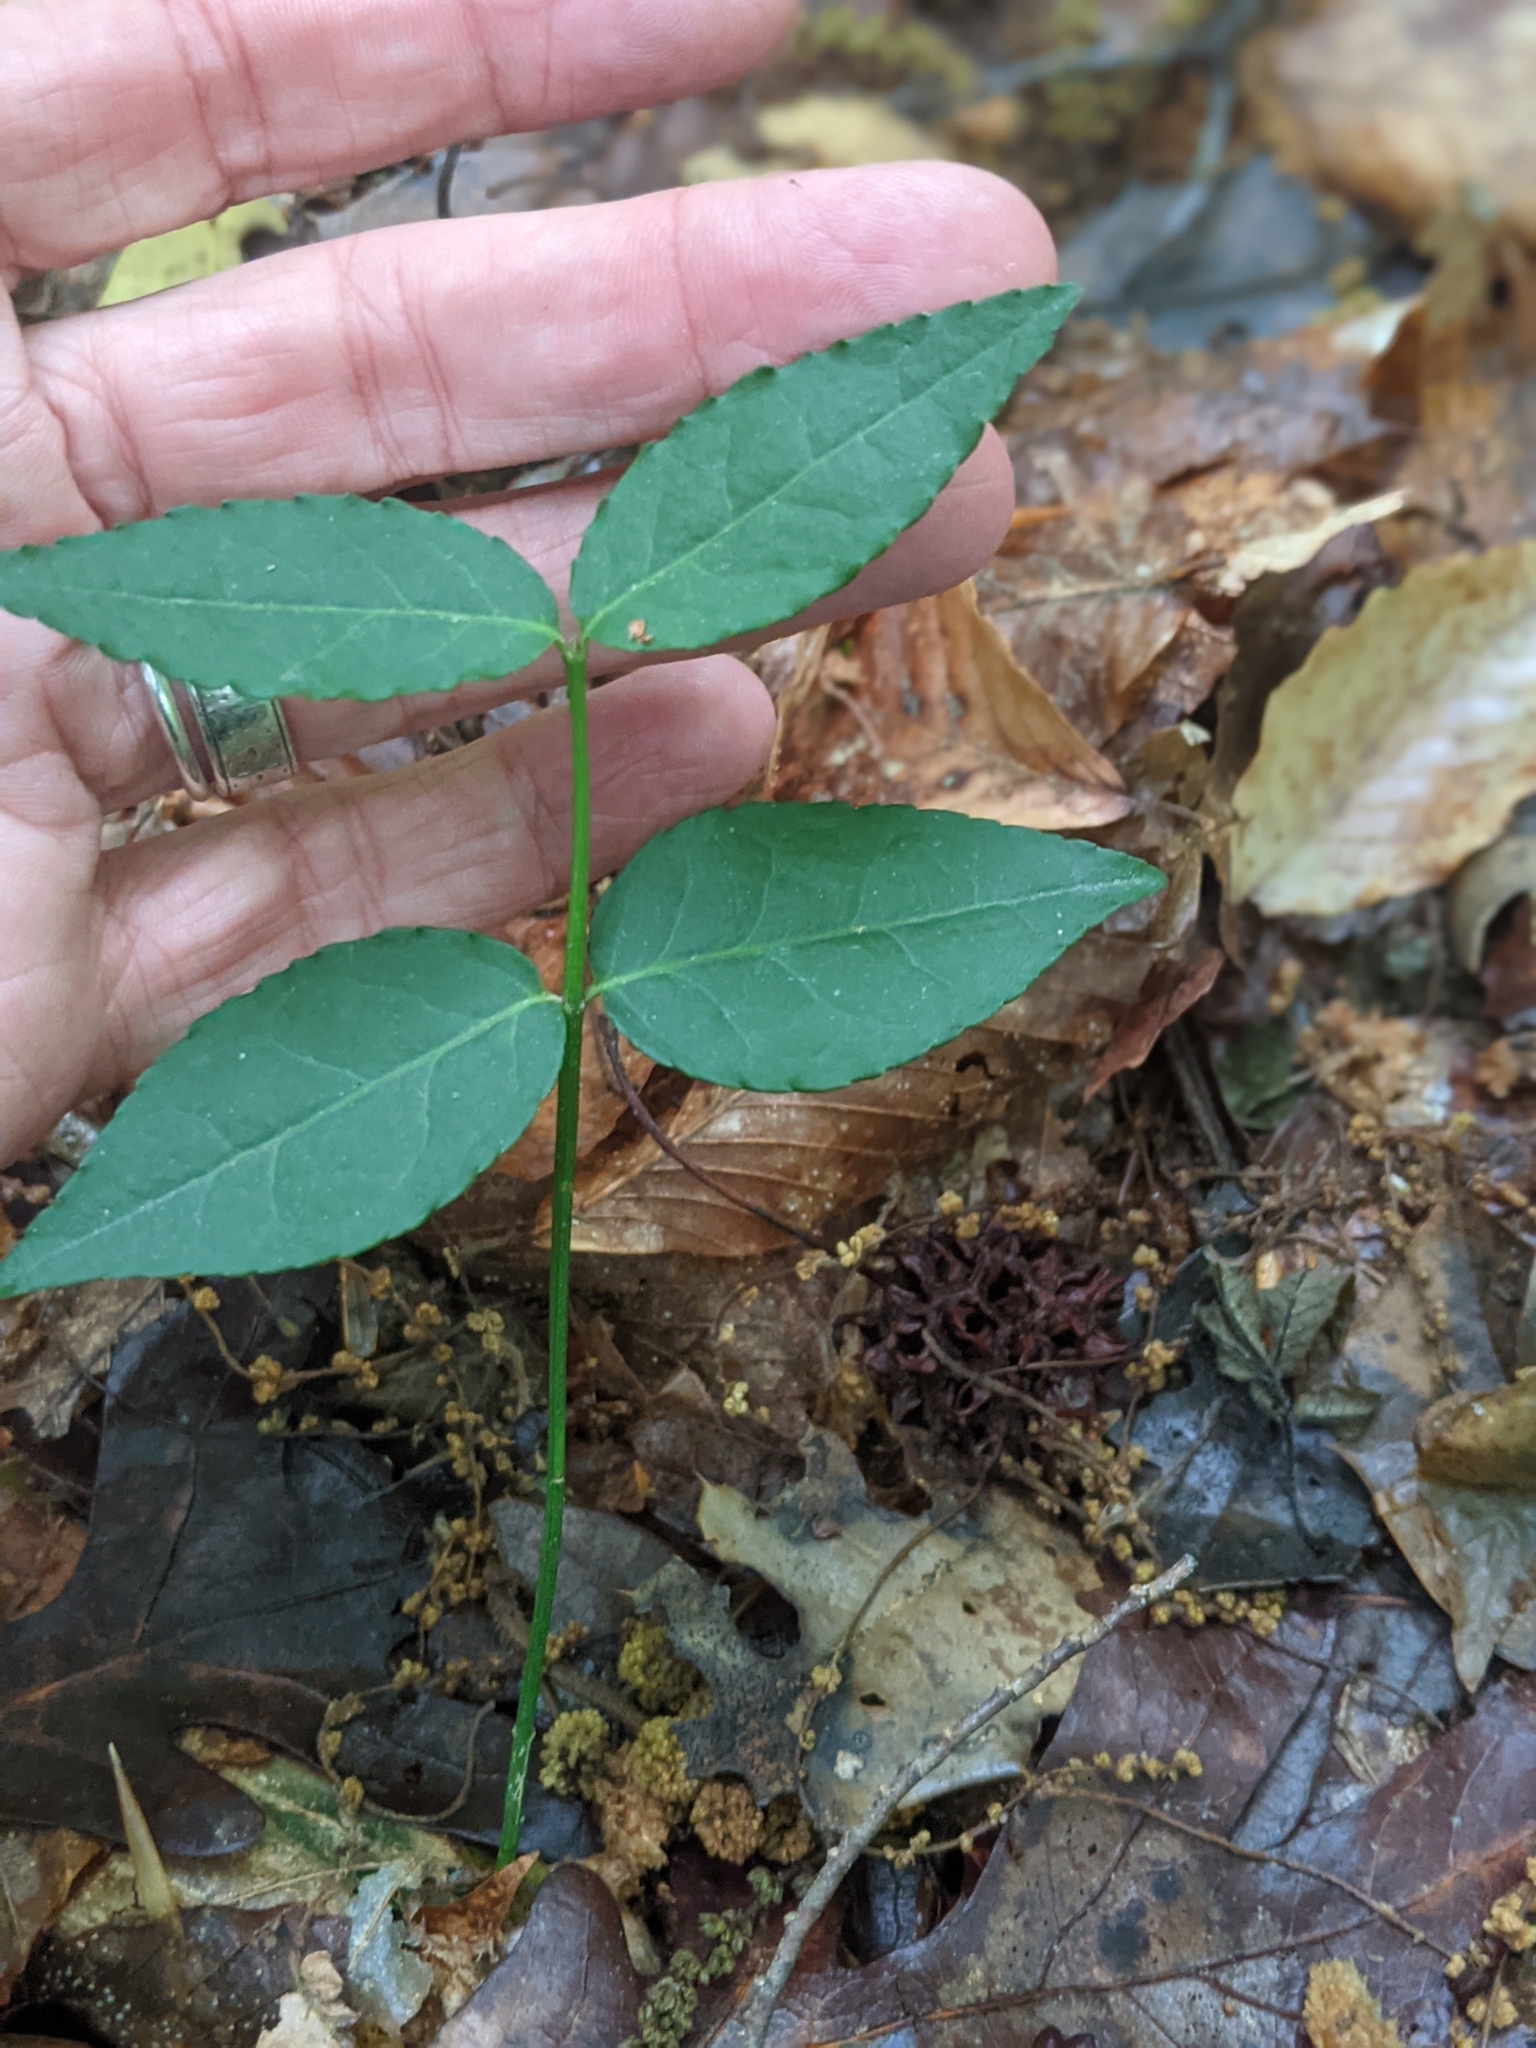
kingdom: Plantae
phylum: Tracheophyta
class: Magnoliopsida
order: Celastrales
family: Celastraceae
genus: Euonymus
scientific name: Euonymus americanus
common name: Bursting-heart
